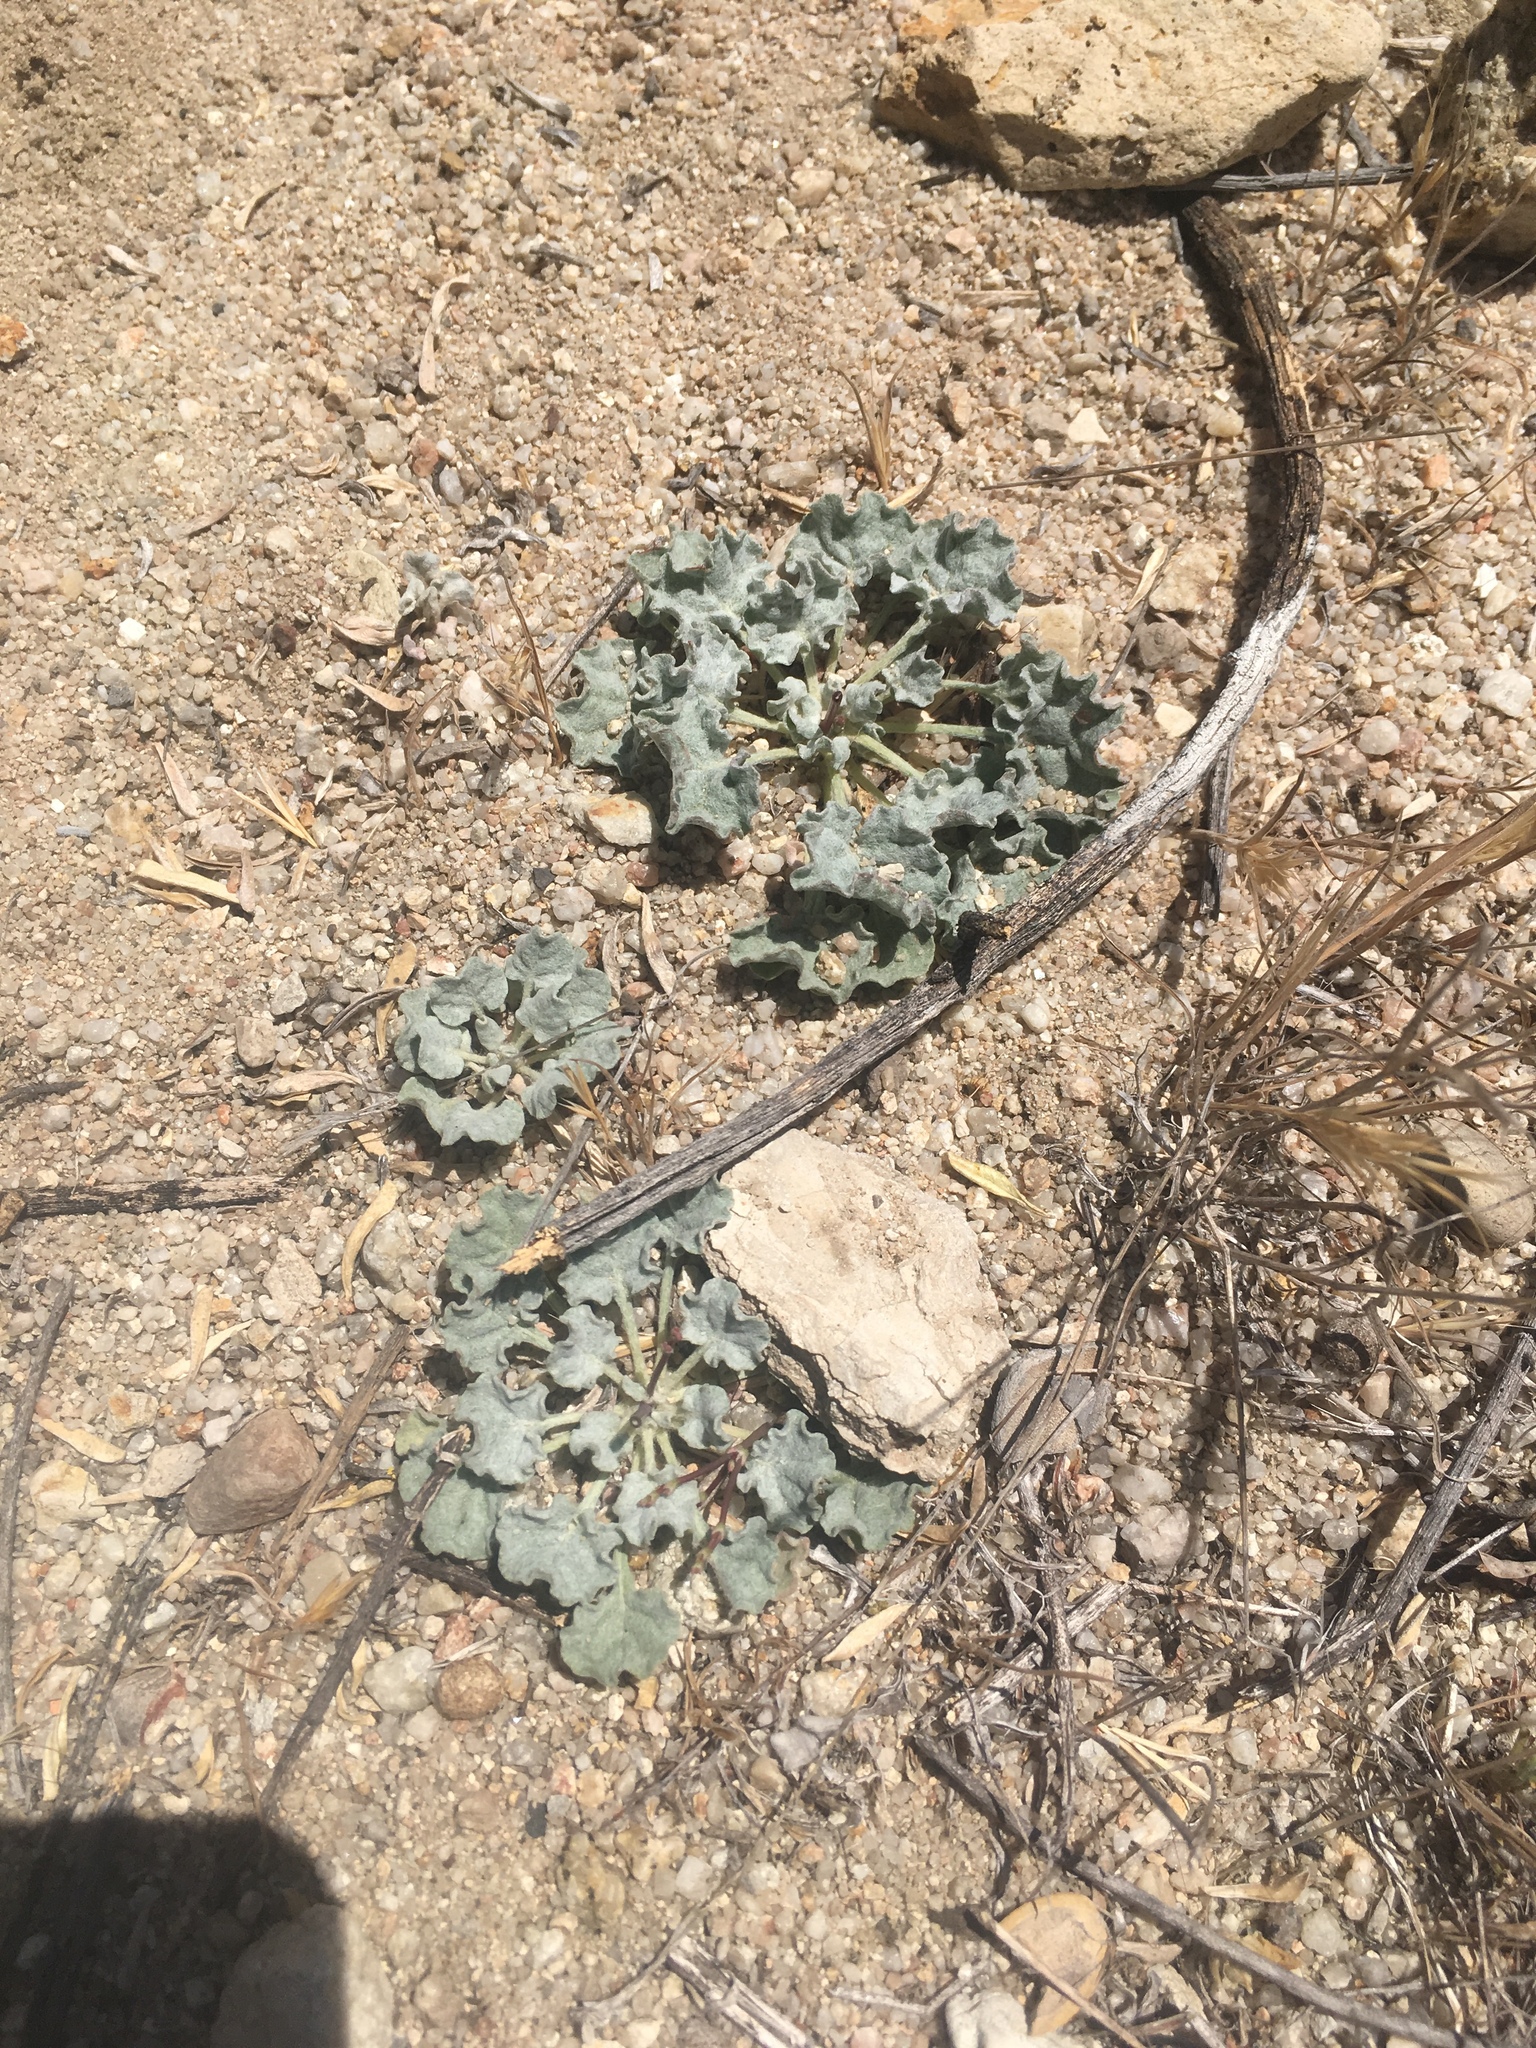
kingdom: Plantae
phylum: Tracheophyta
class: Magnoliopsida
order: Caryophyllales
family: Polygonaceae
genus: Eriogonum
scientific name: Eriogonum elegans
